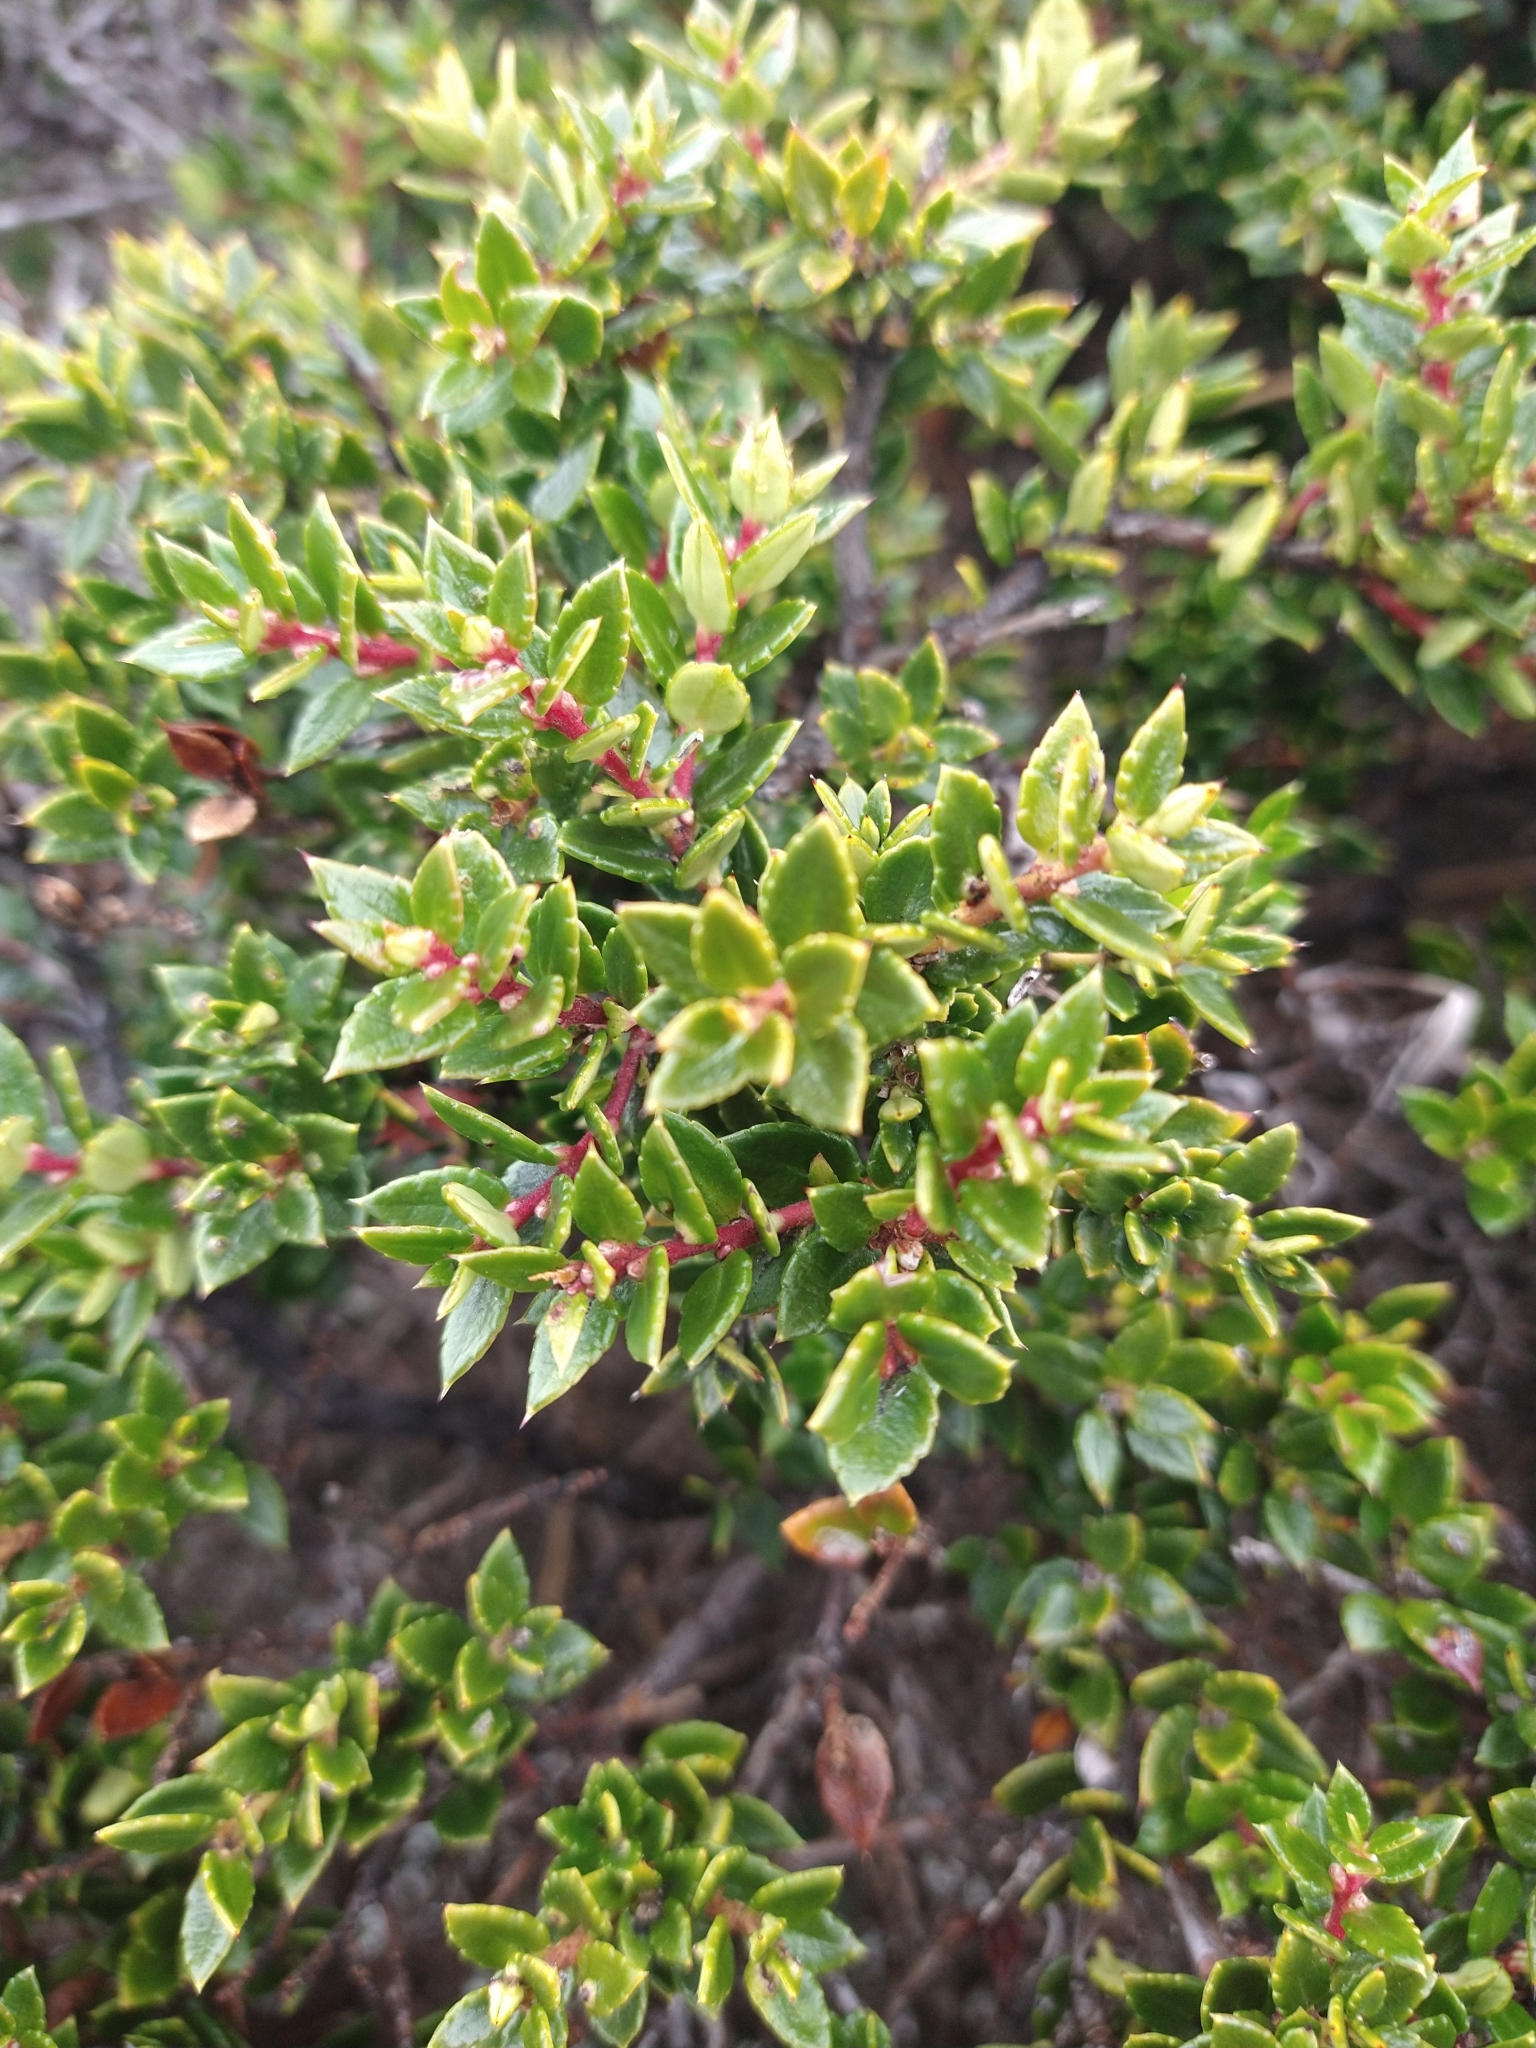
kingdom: Plantae
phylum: Tracheophyta
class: Magnoliopsida
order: Ericales
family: Ericaceae
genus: Gaultheria
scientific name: Gaultheria mucronata
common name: Prickly heath
